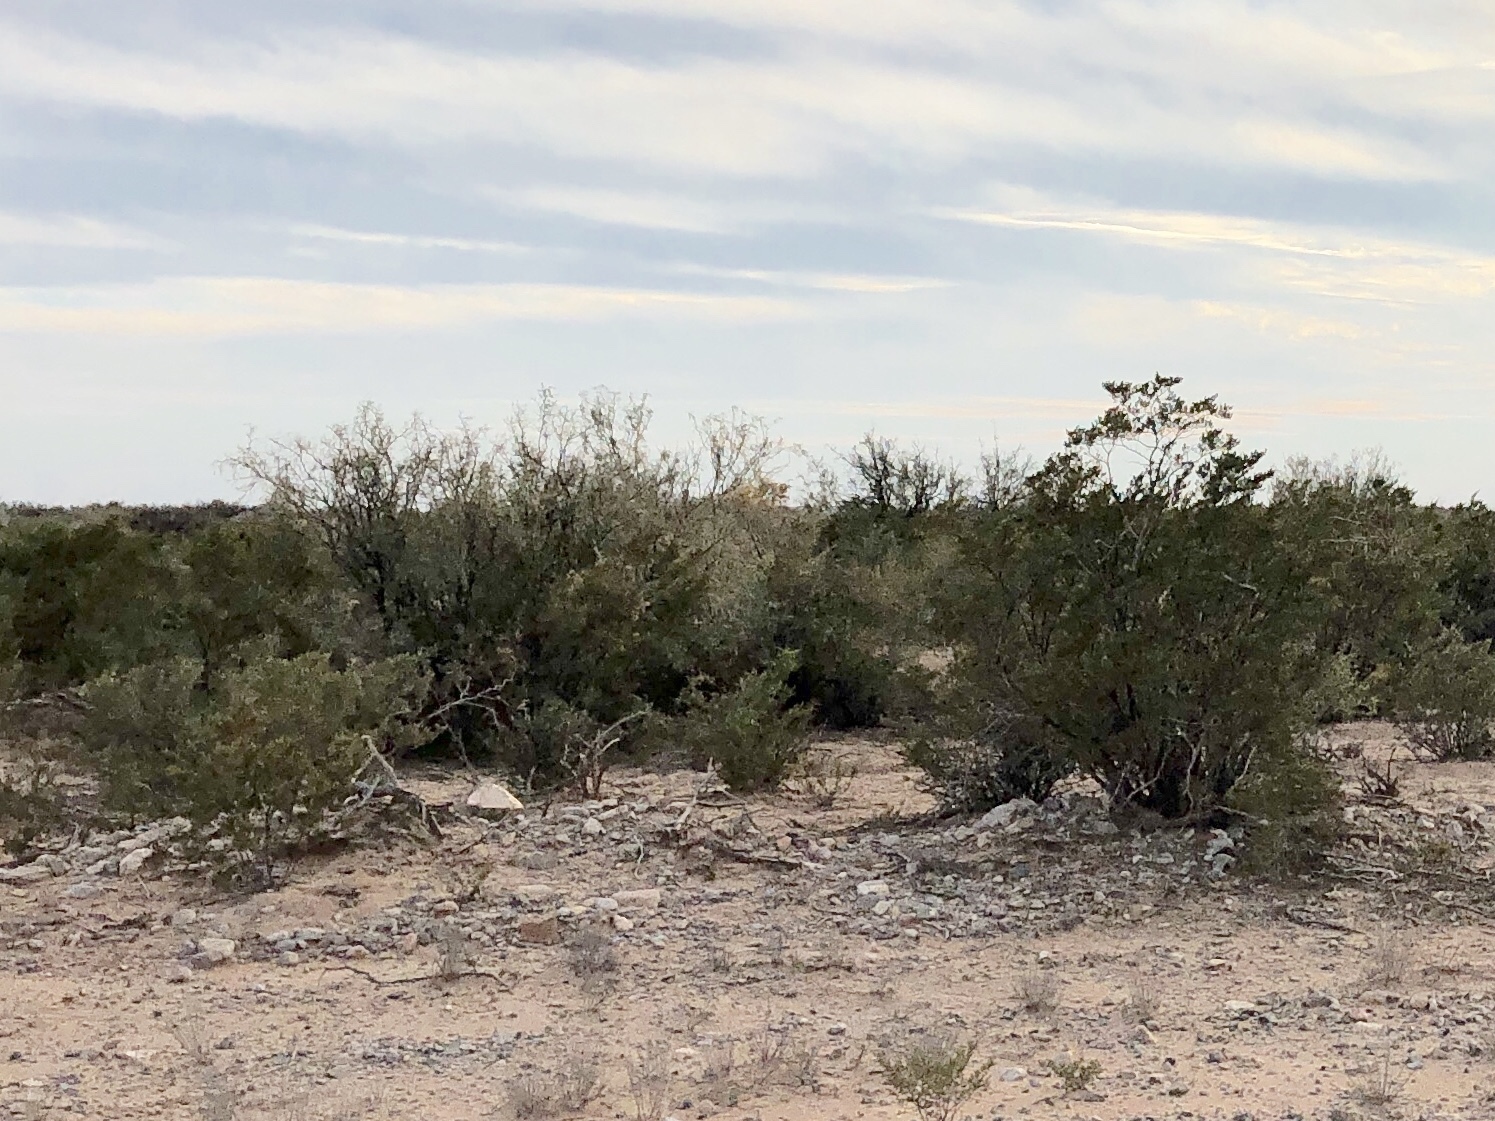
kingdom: Plantae
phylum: Tracheophyta
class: Magnoliopsida
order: Zygophyllales
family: Zygophyllaceae
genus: Larrea
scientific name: Larrea tridentata
